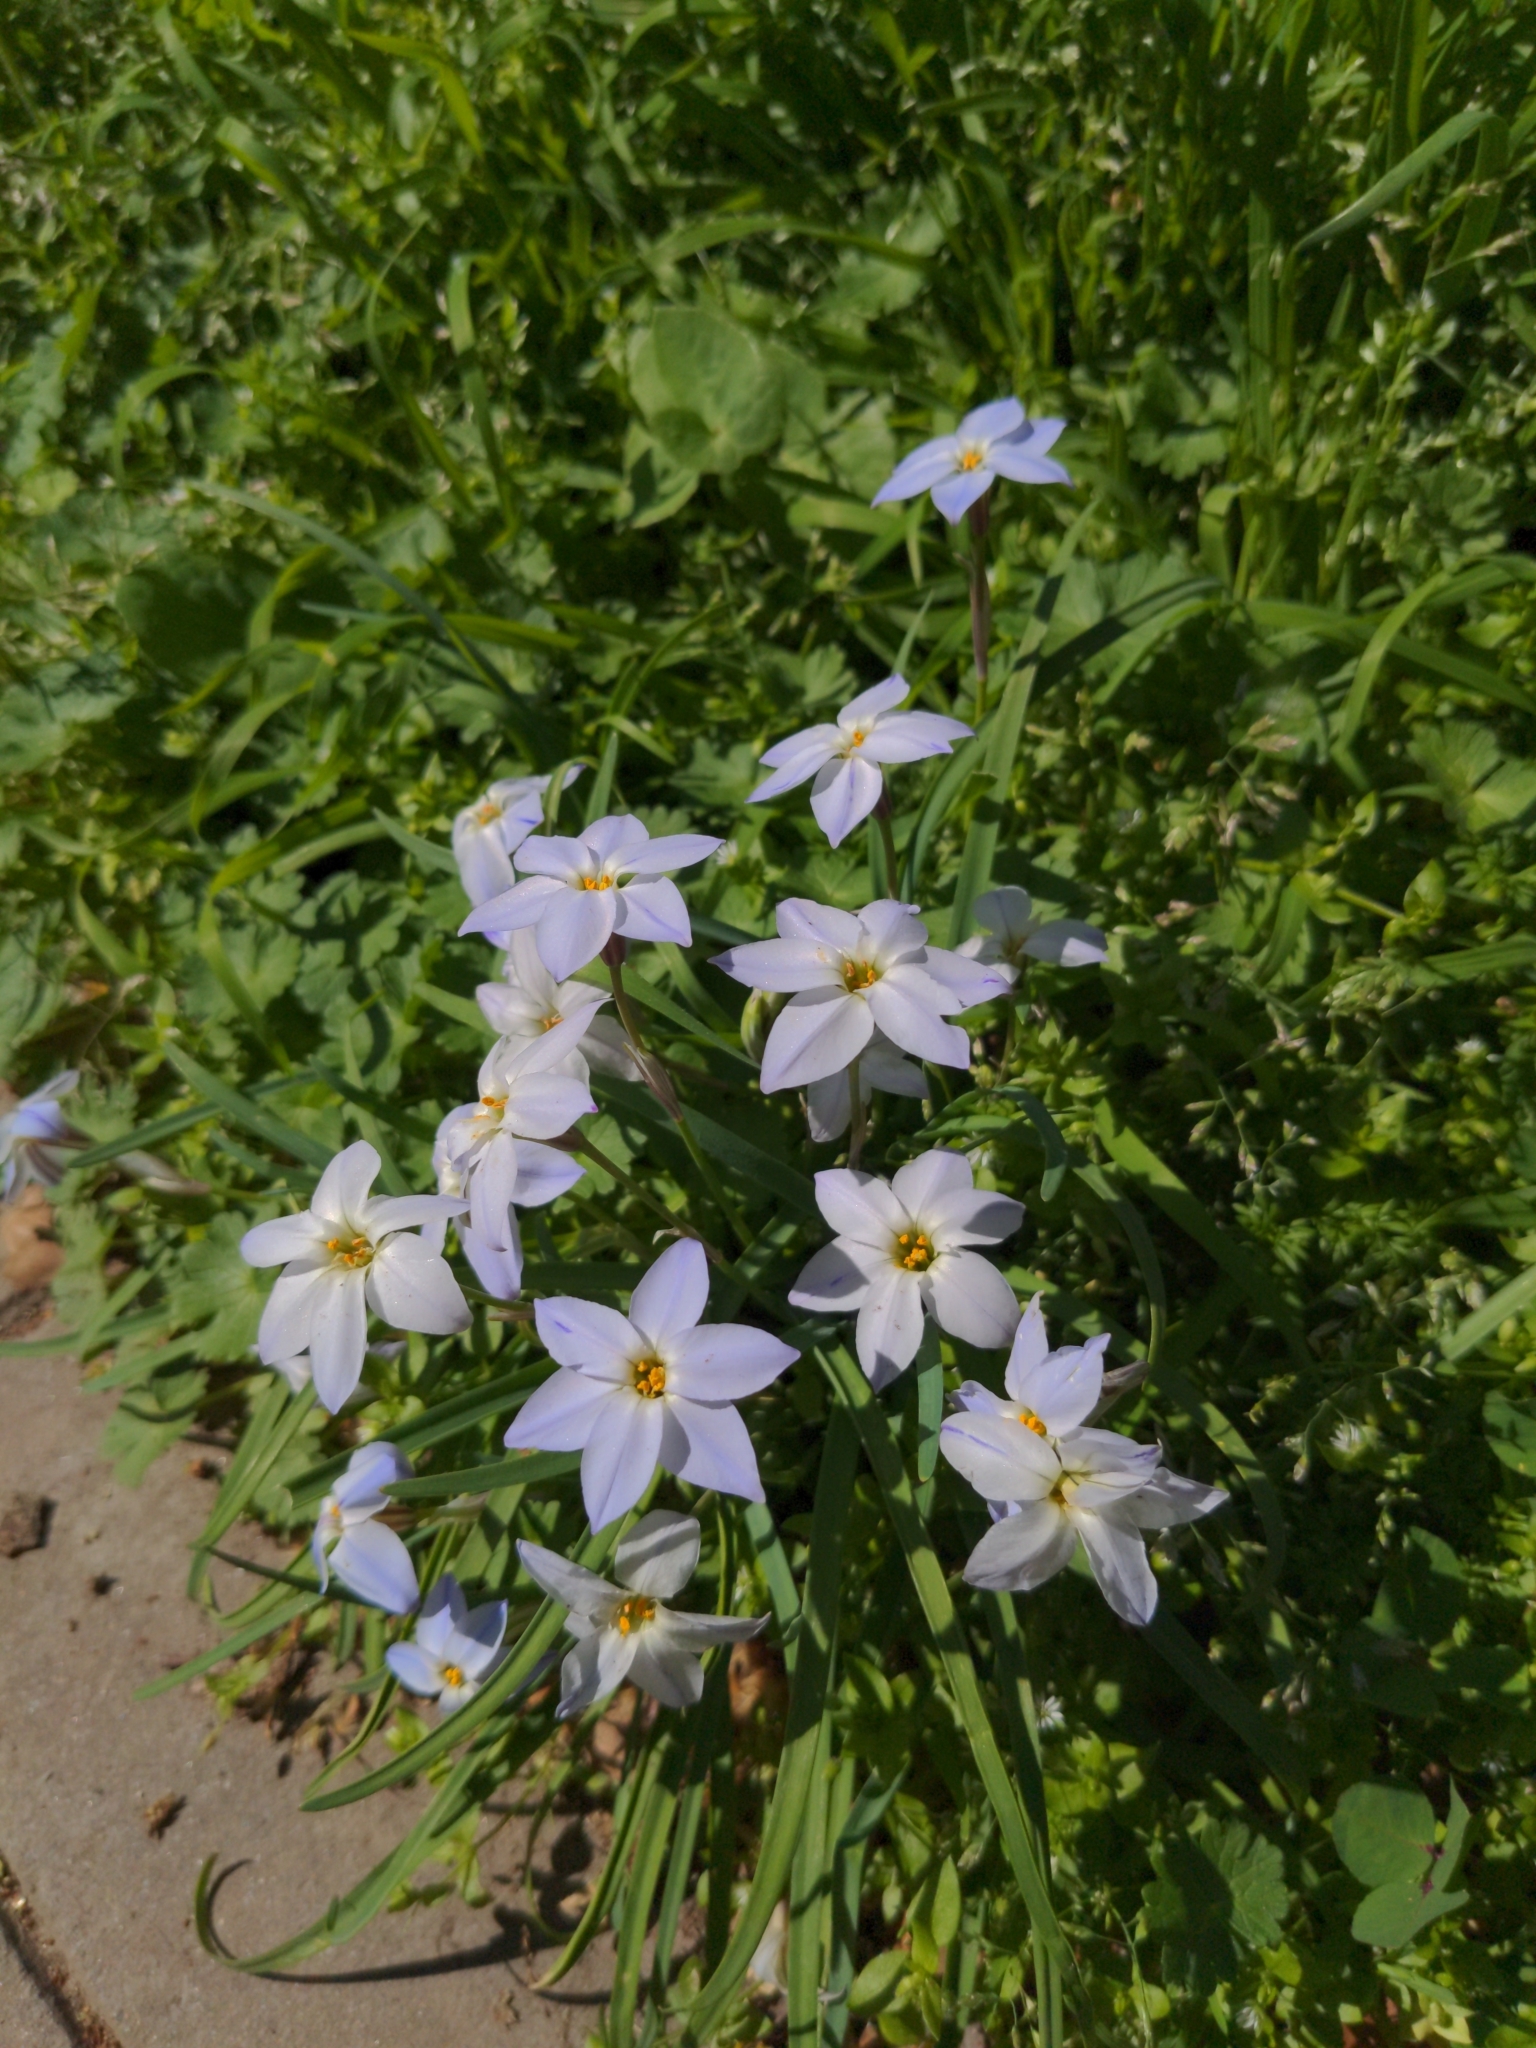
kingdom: Plantae
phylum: Tracheophyta
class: Liliopsida
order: Asparagales
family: Amaryllidaceae
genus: Ipheion
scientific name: Ipheion uniflorum
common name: Spring starflower
